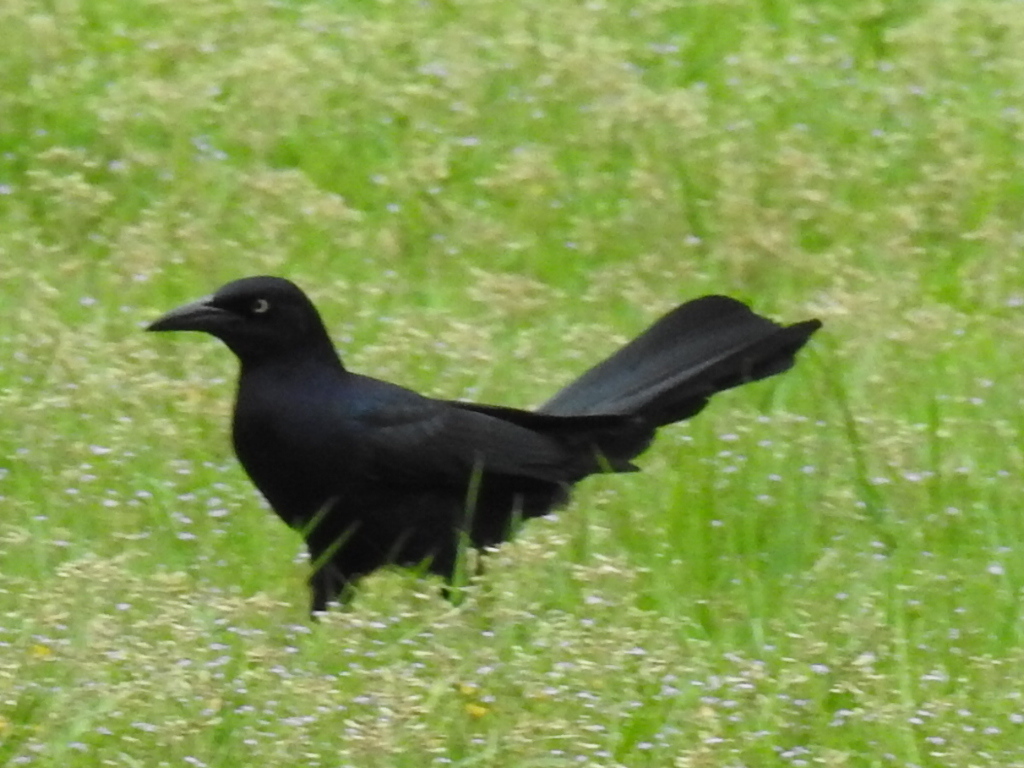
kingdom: Animalia
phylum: Chordata
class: Aves
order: Passeriformes
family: Icteridae
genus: Quiscalus
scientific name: Quiscalus mexicanus
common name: Great-tailed grackle
